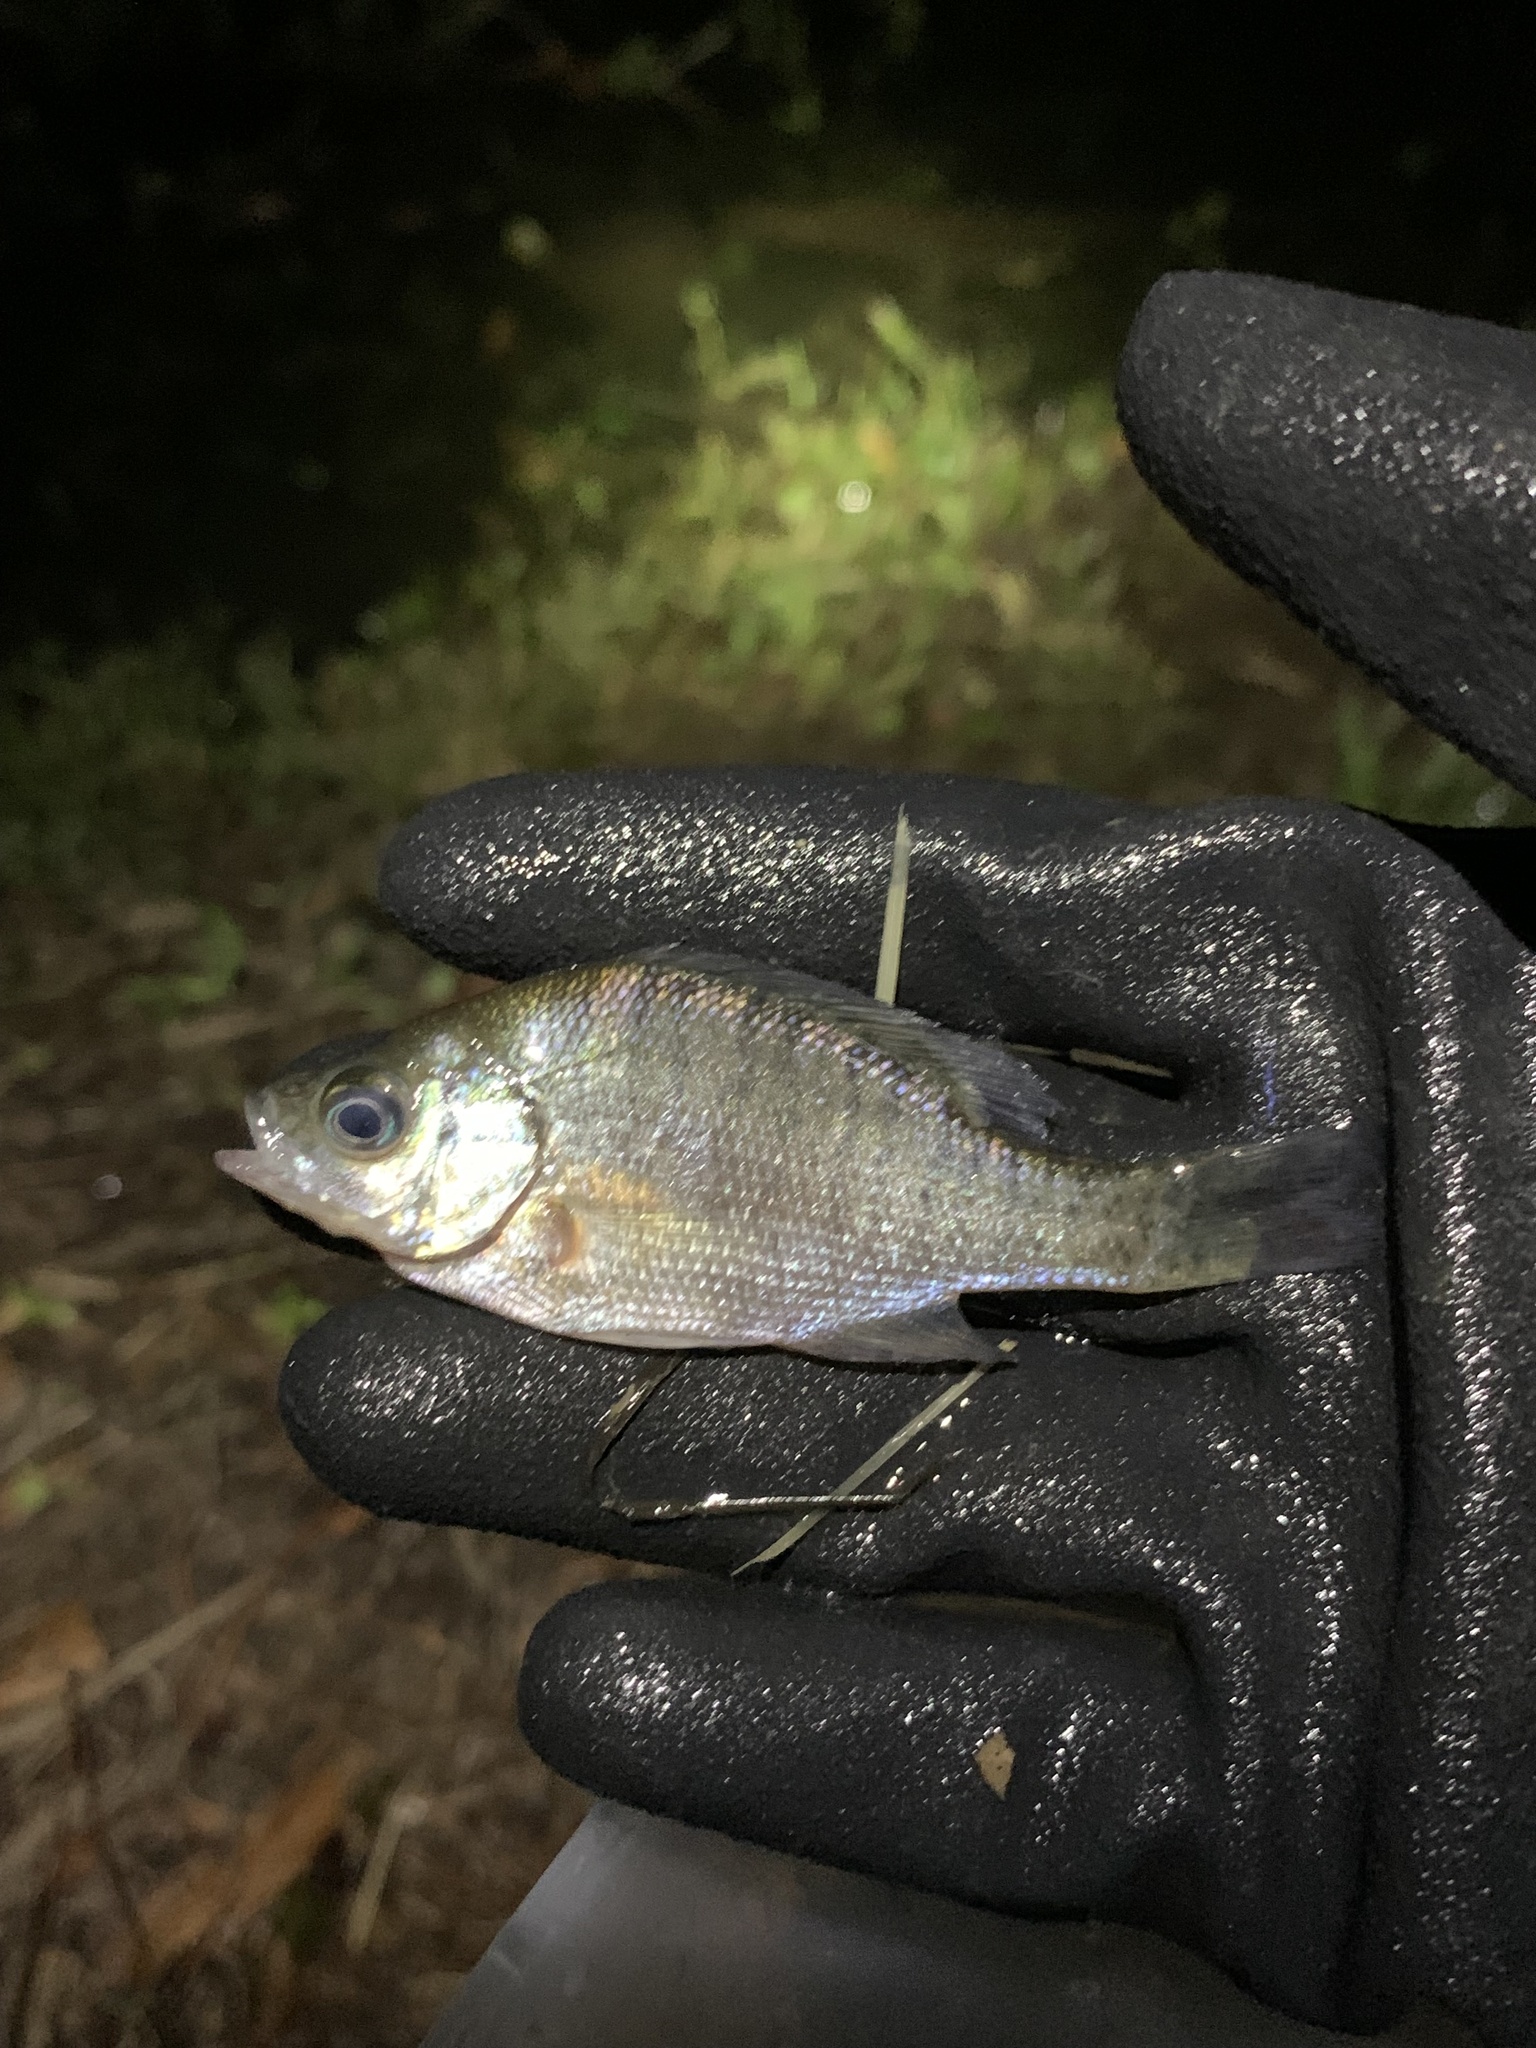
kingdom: Animalia
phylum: Chordata
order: Perciformes
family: Centrarchidae
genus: Lepomis
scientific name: Lepomis macrochirus
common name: Bluegill
